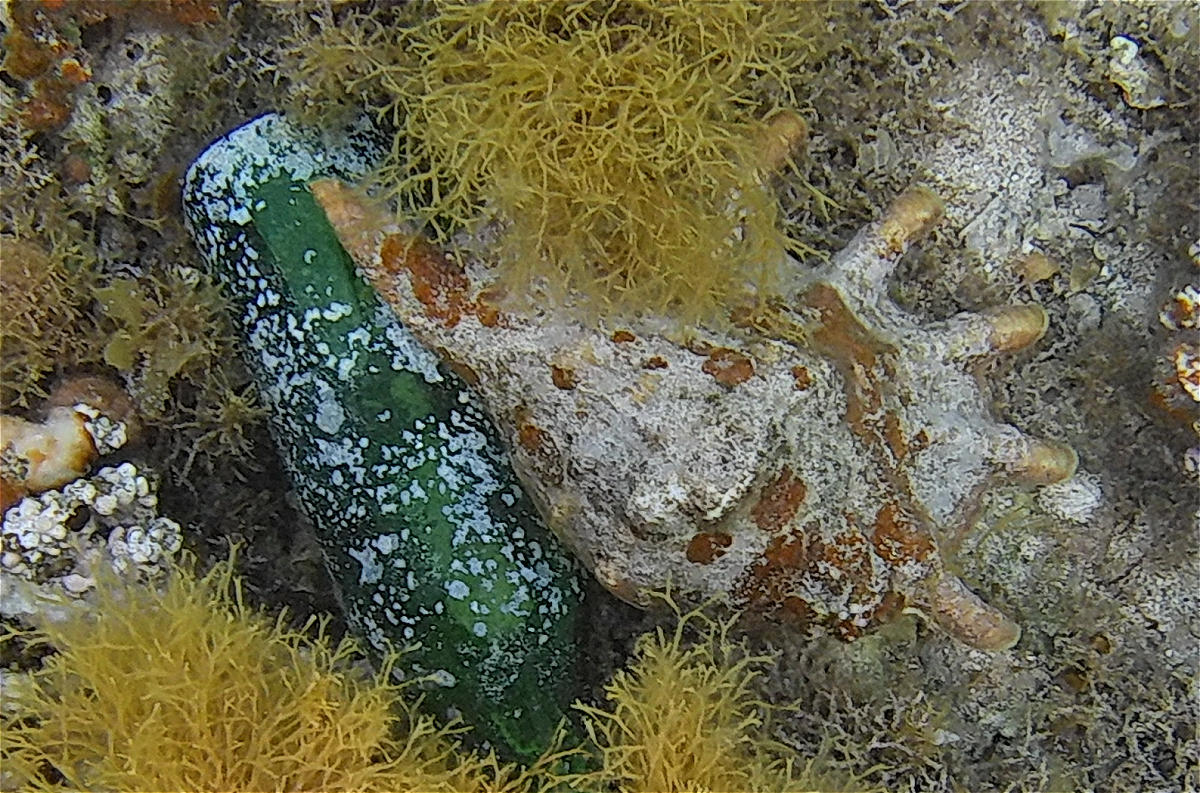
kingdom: Animalia
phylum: Mollusca
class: Gastropoda
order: Littorinimorpha
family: Strombidae
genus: Lambis
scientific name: Lambis truncata
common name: Giant spider conch
